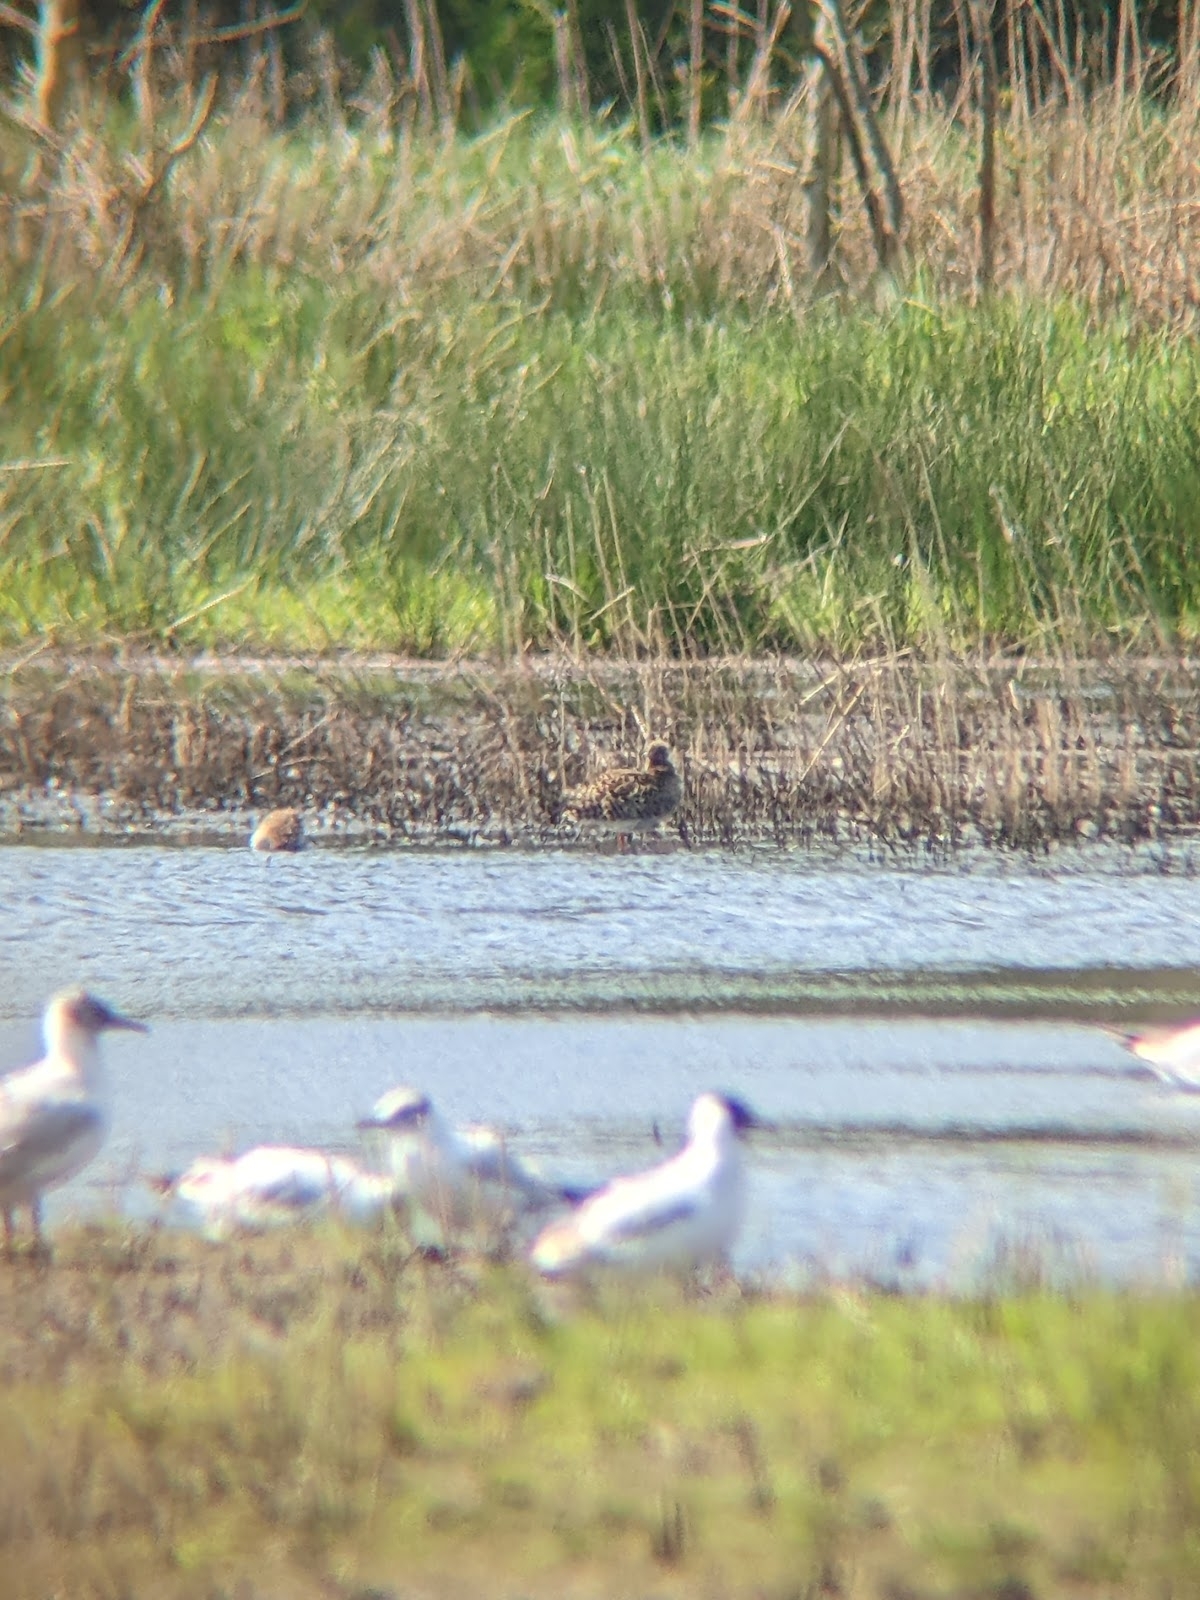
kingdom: Animalia
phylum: Chordata
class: Aves
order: Charadriiformes
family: Scolopacidae
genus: Calidris
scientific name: Calidris pugnax
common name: Ruff
